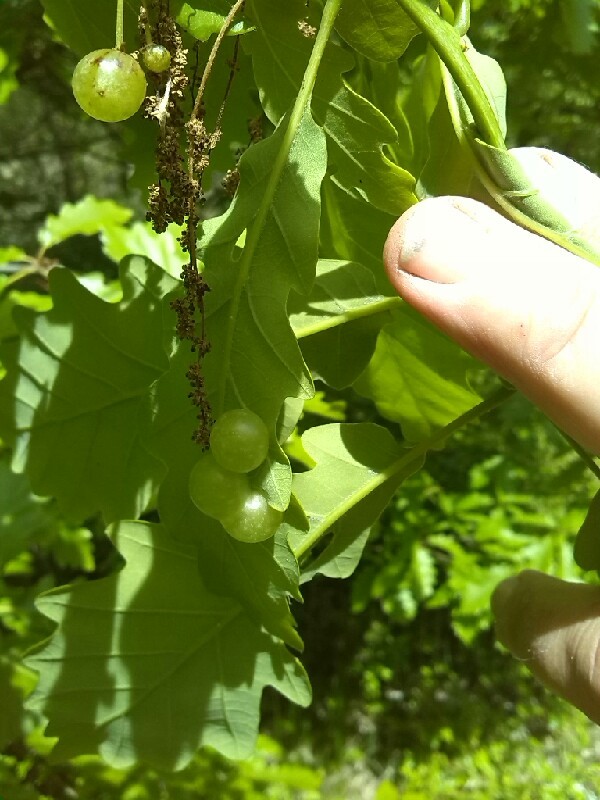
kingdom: Animalia
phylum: Arthropoda
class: Insecta
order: Hymenoptera
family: Cynipidae
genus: Neuroterus
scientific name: Neuroterus quercusbaccarum
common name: Common spangle gall
